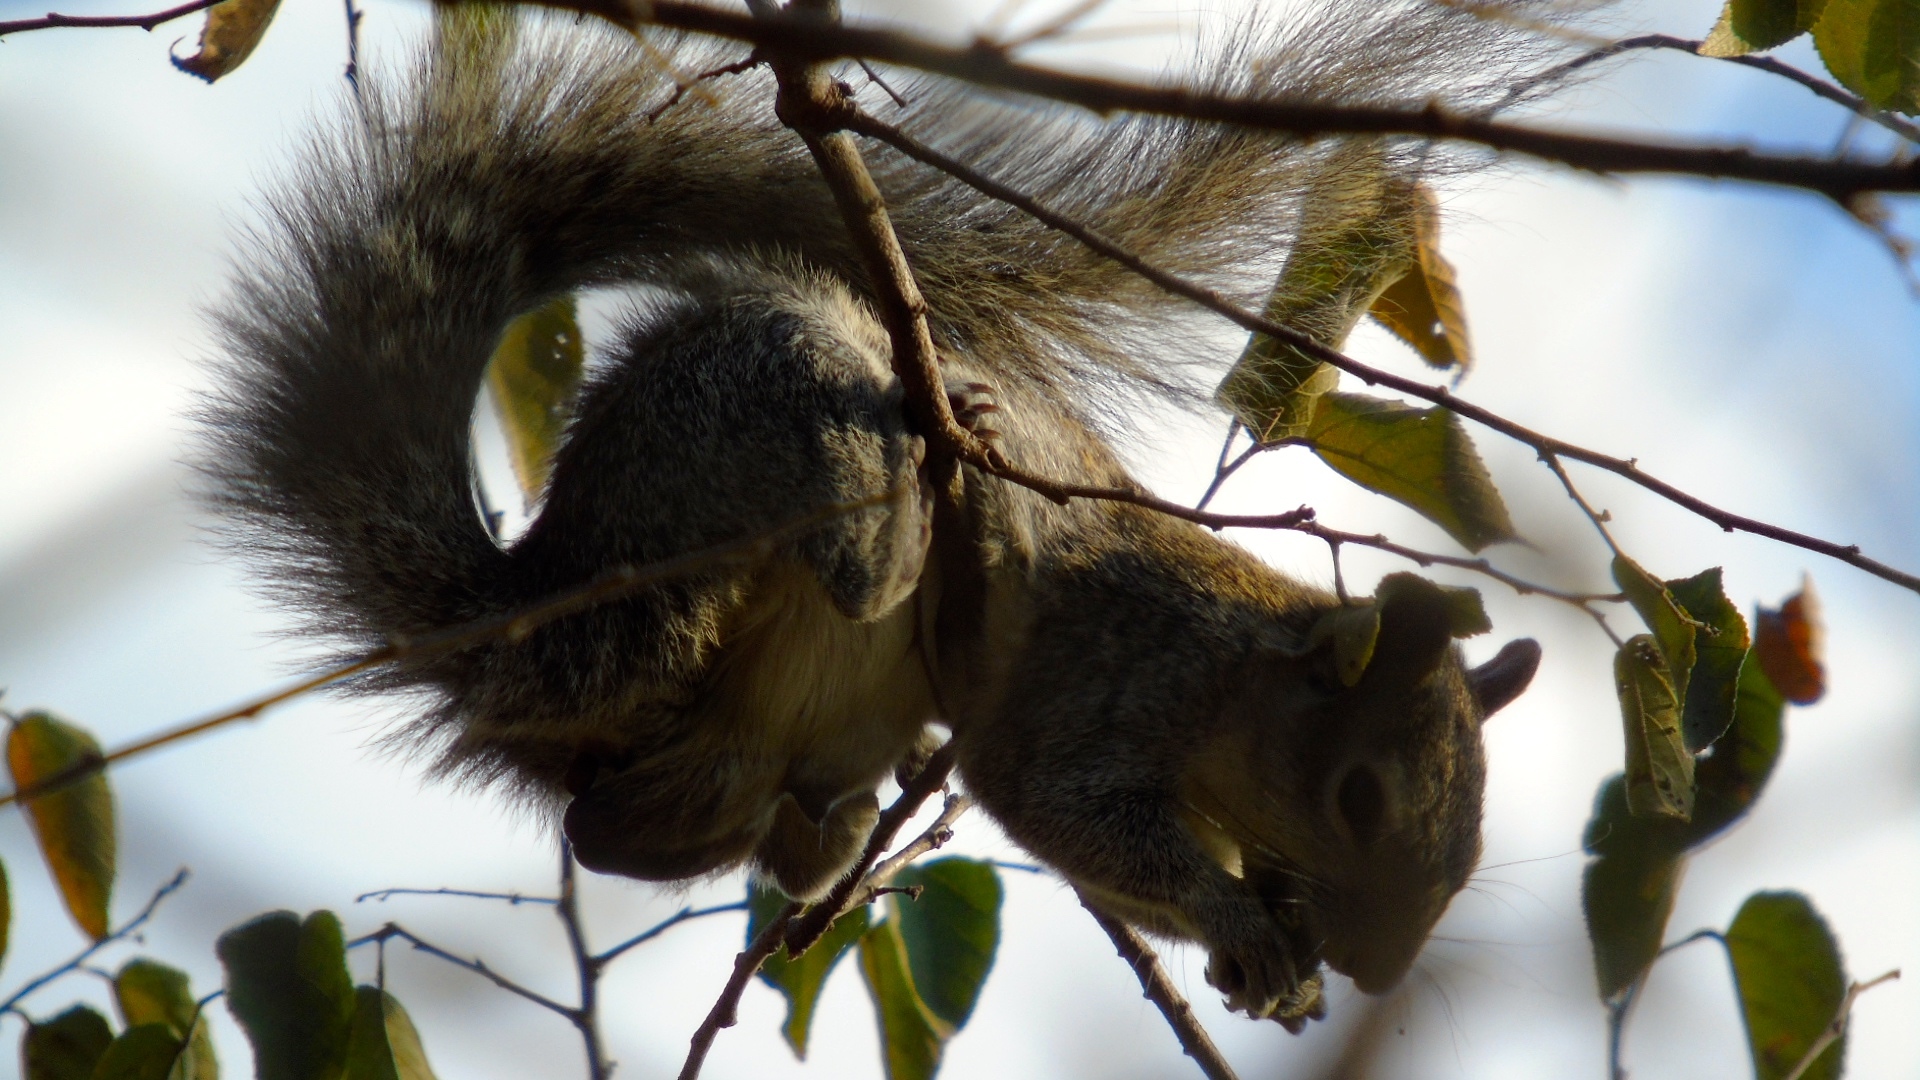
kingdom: Animalia
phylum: Chordata
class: Mammalia
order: Rodentia
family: Sciuridae
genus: Sciurus
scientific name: Sciurus colliaei
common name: Collie's squirrel
